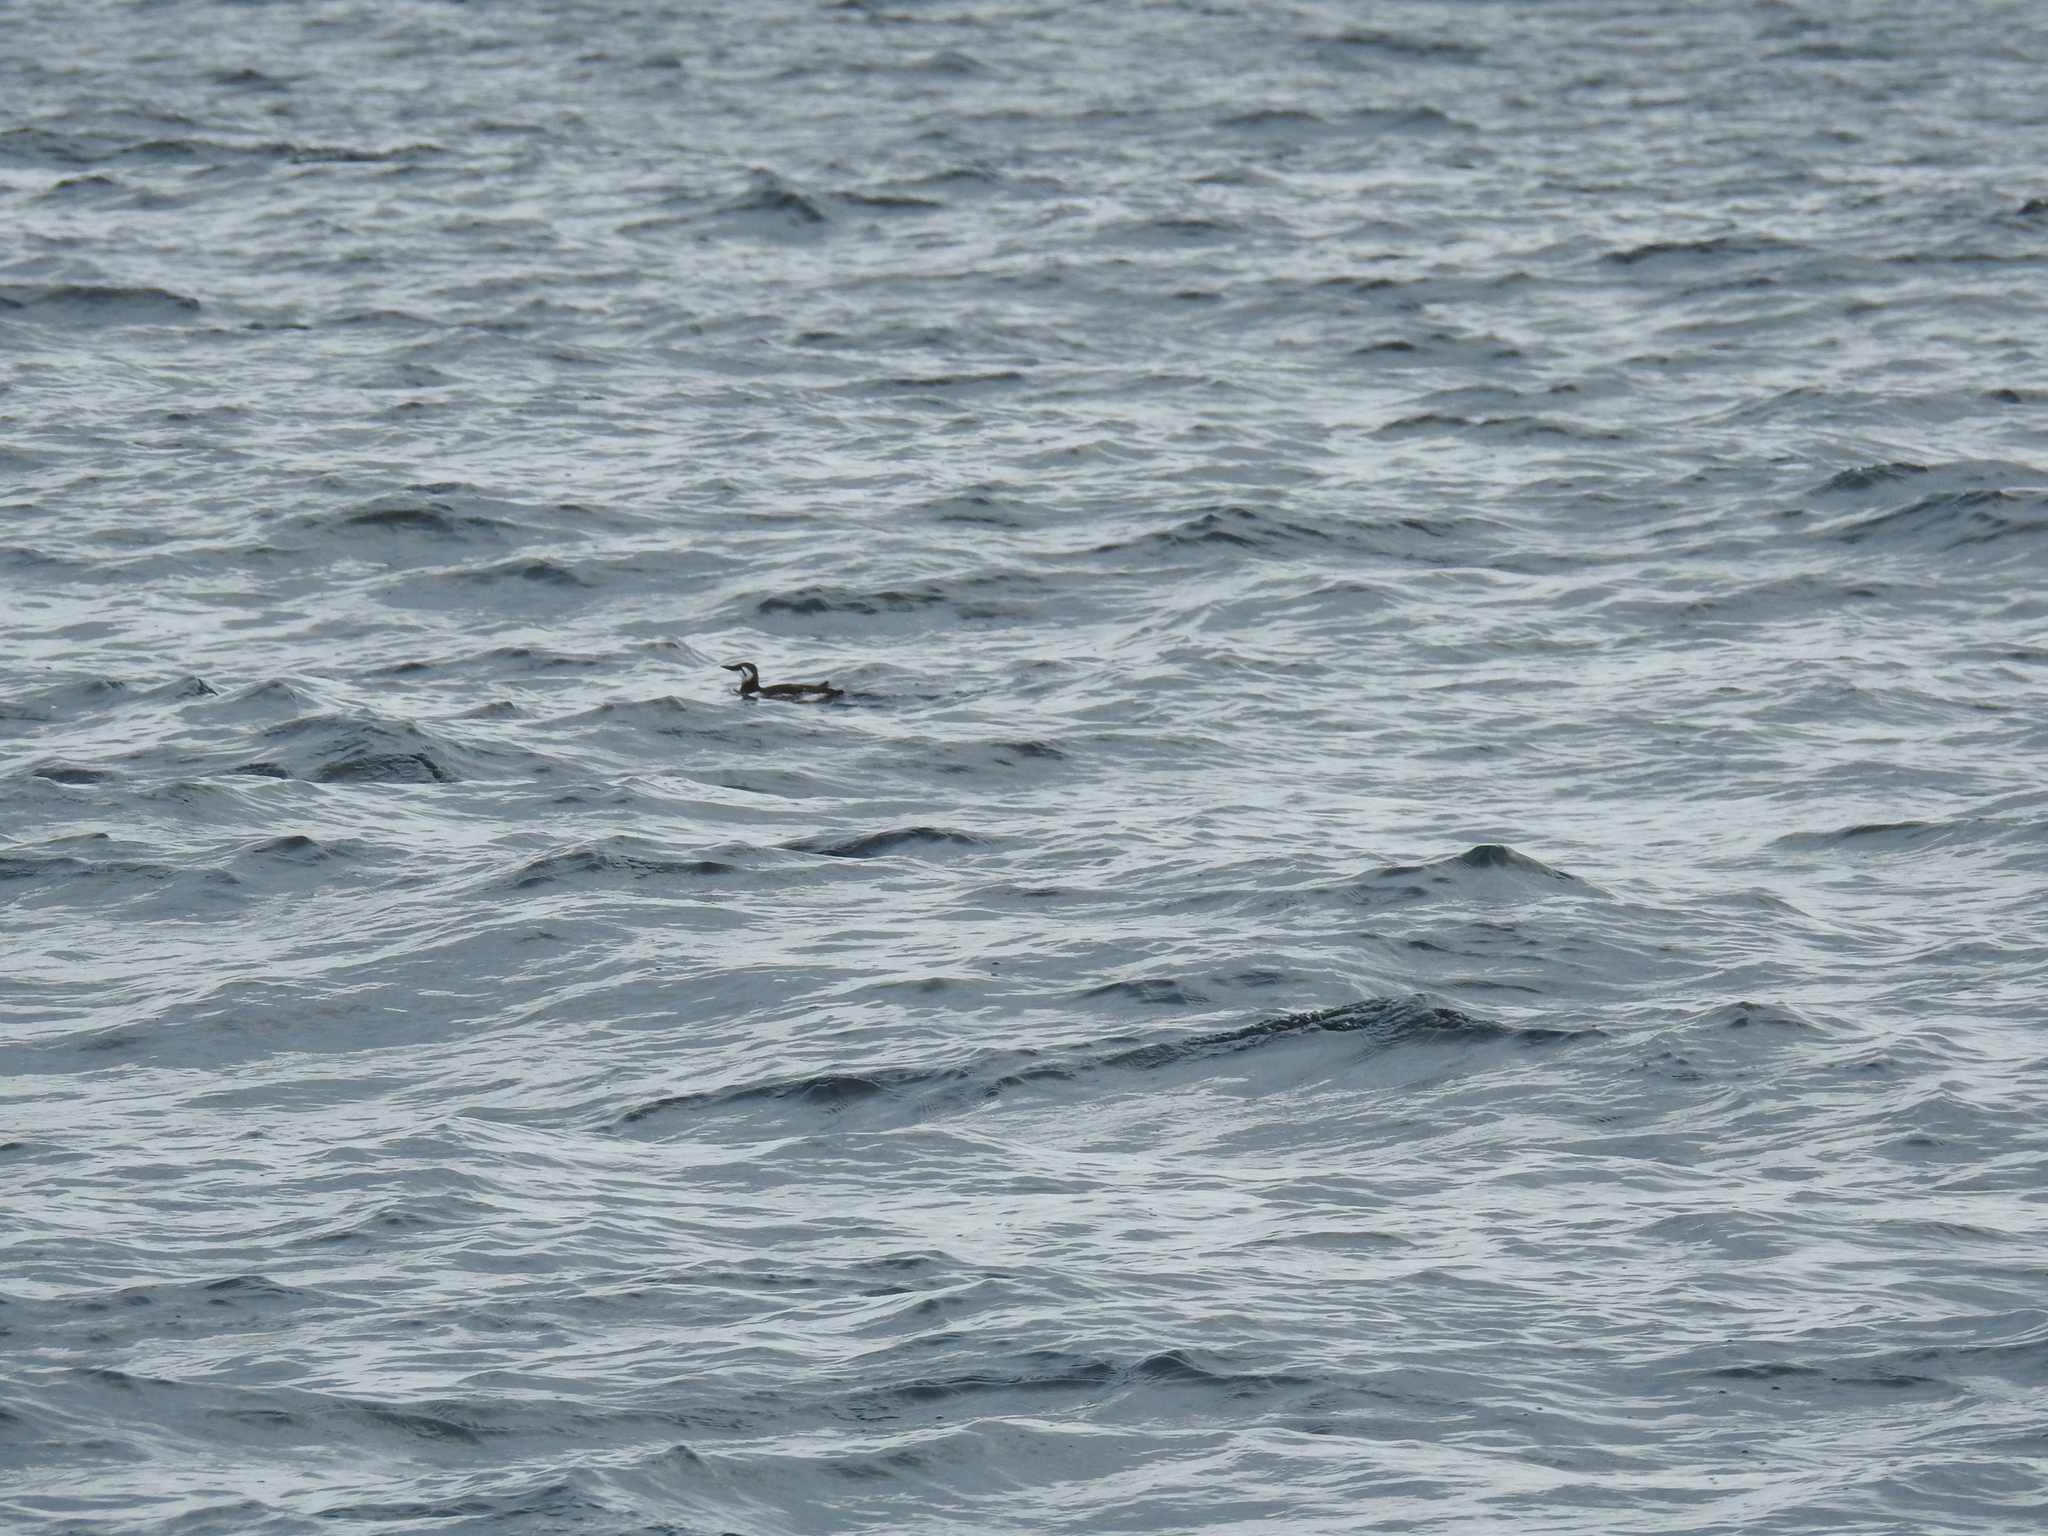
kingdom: Animalia
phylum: Chordata
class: Aves
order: Charadriiformes
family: Alcidae
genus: Uria
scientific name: Uria aalge
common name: Common murre
